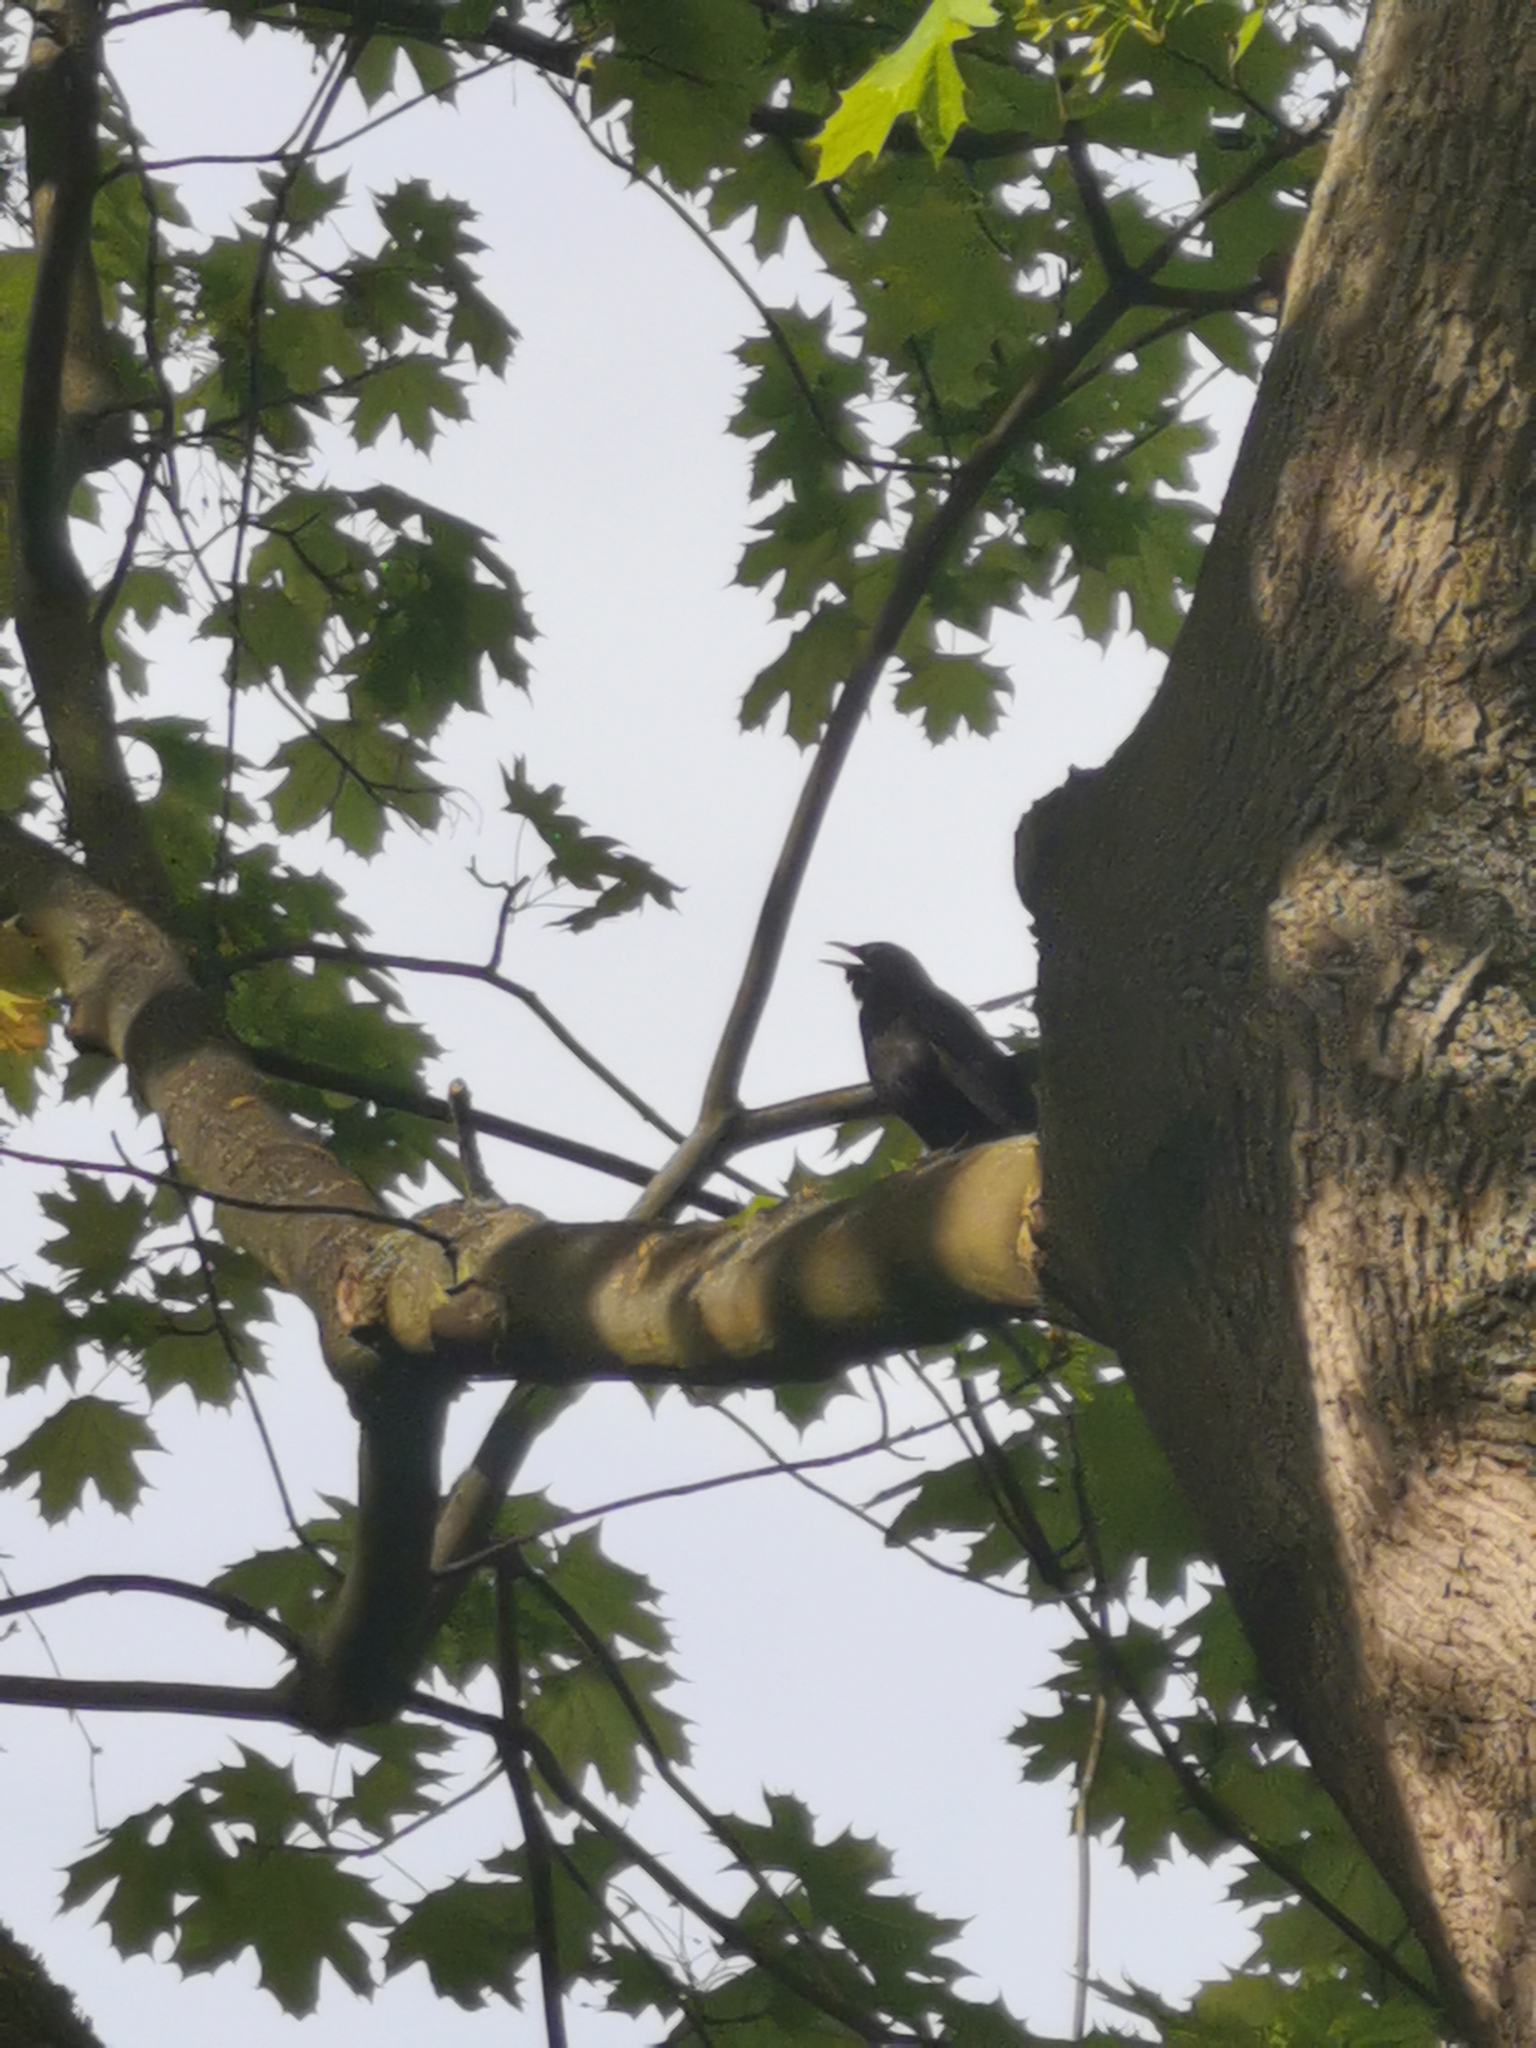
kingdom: Animalia
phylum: Chordata
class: Aves
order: Passeriformes
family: Turdidae
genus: Turdus
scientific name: Turdus merula
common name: Common blackbird
